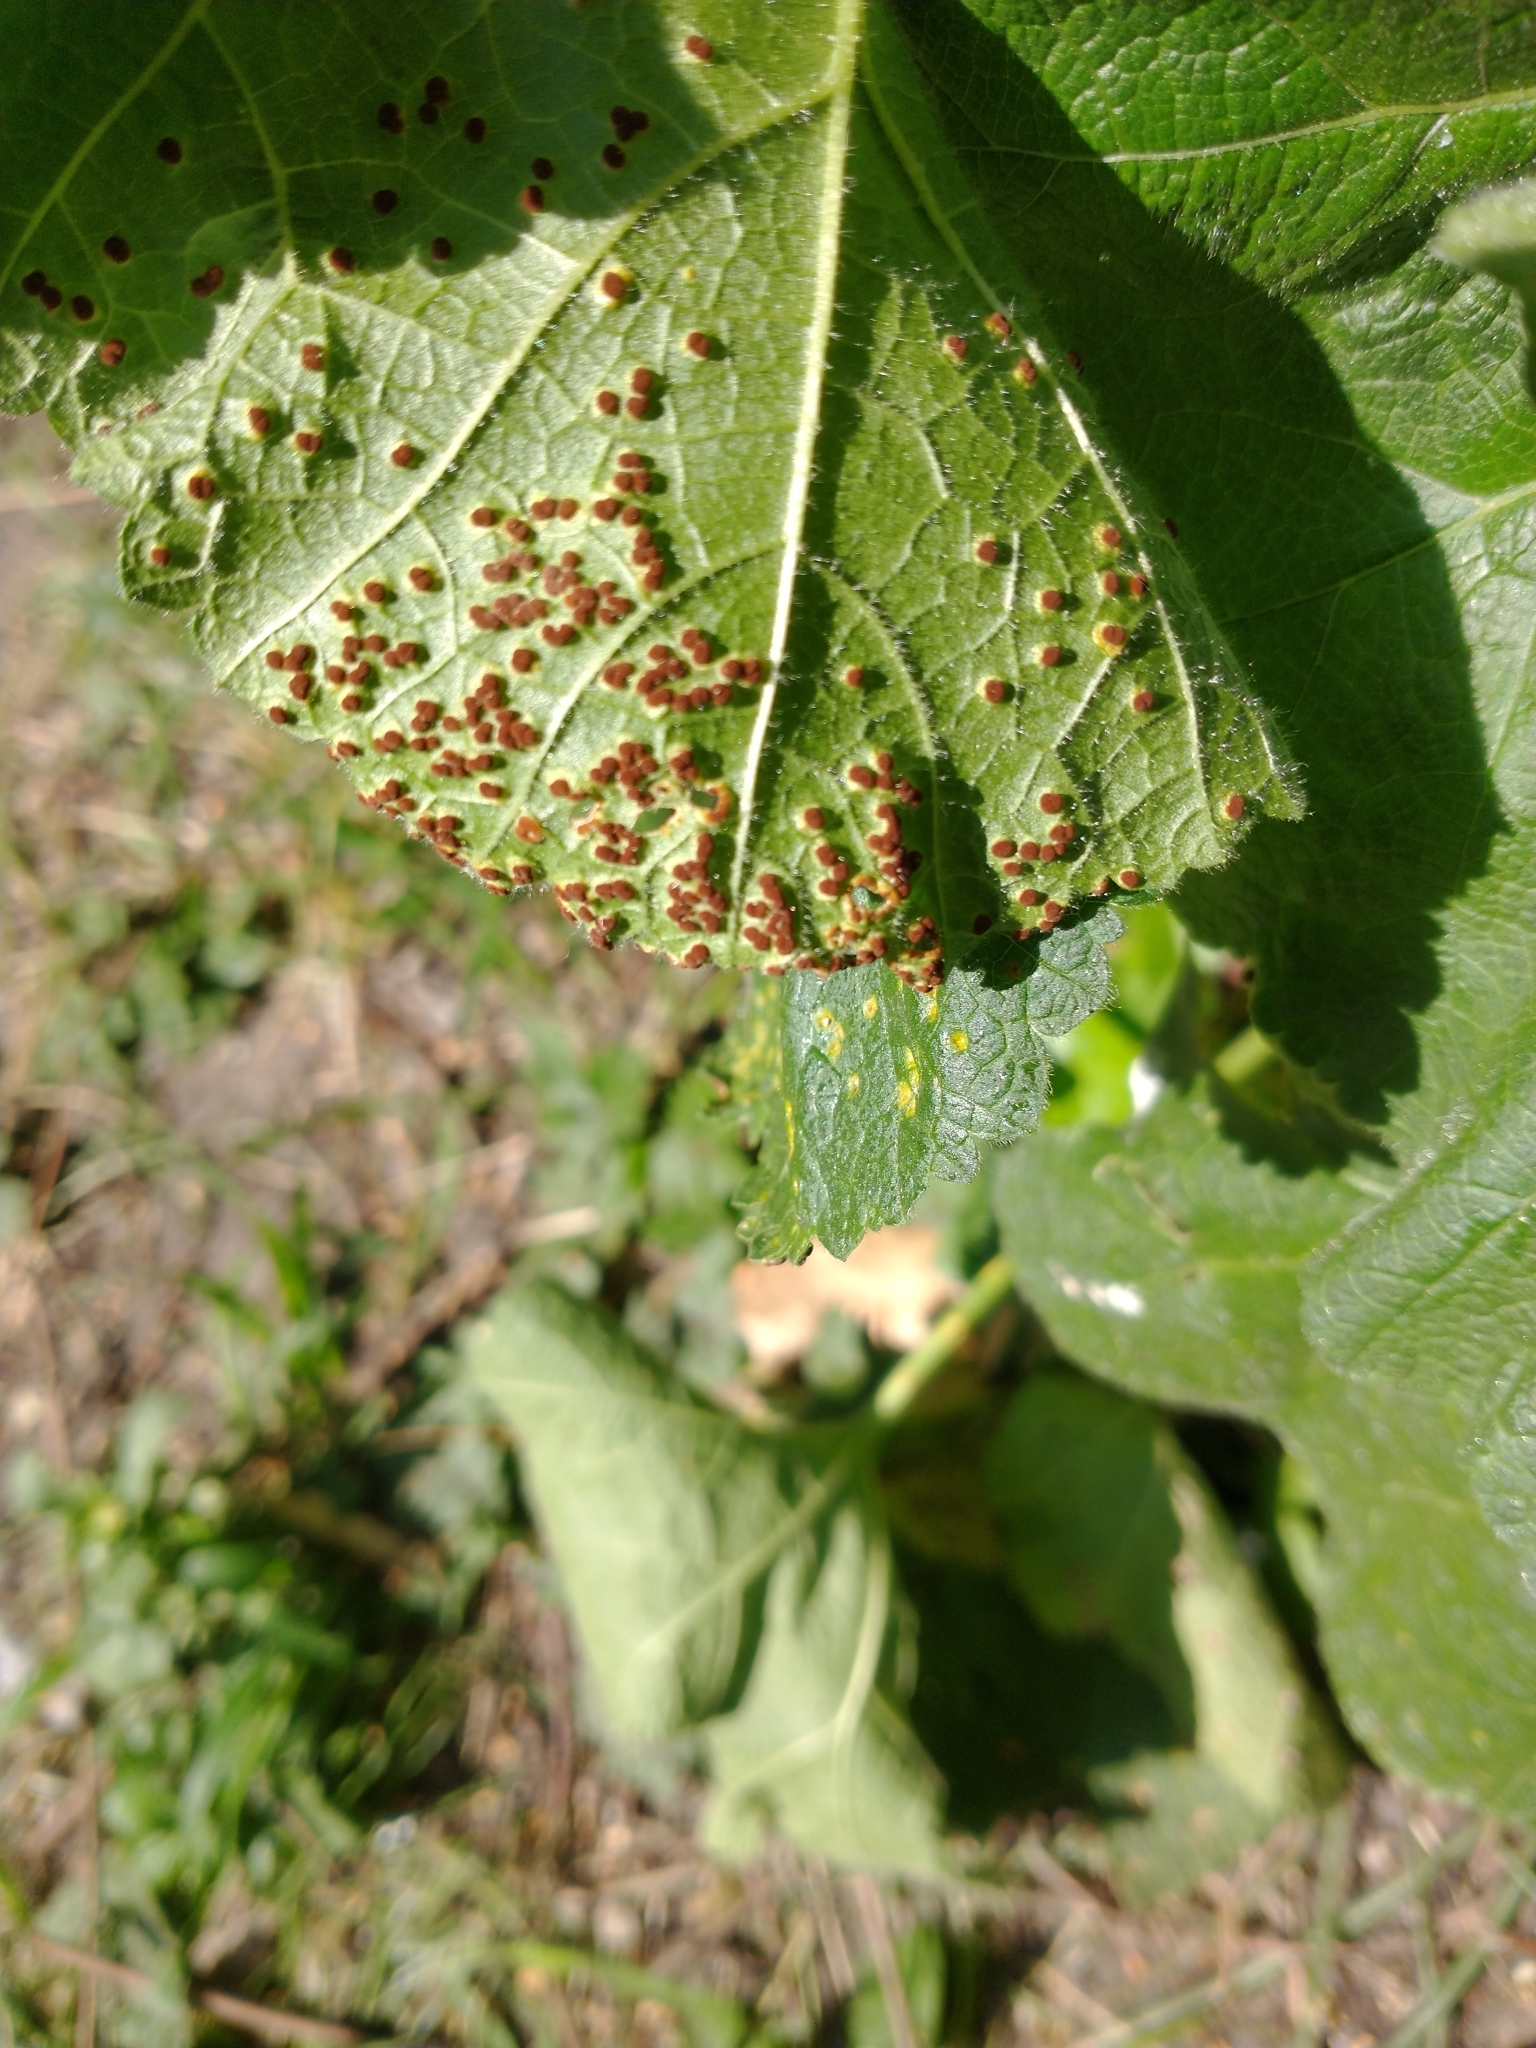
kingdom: Fungi
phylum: Basidiomycota
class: Pucciniomycetes
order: Pucciniales
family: Pucciniaceae
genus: Puccinia
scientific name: Puccinia malvacearum
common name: Hollyhock rust
